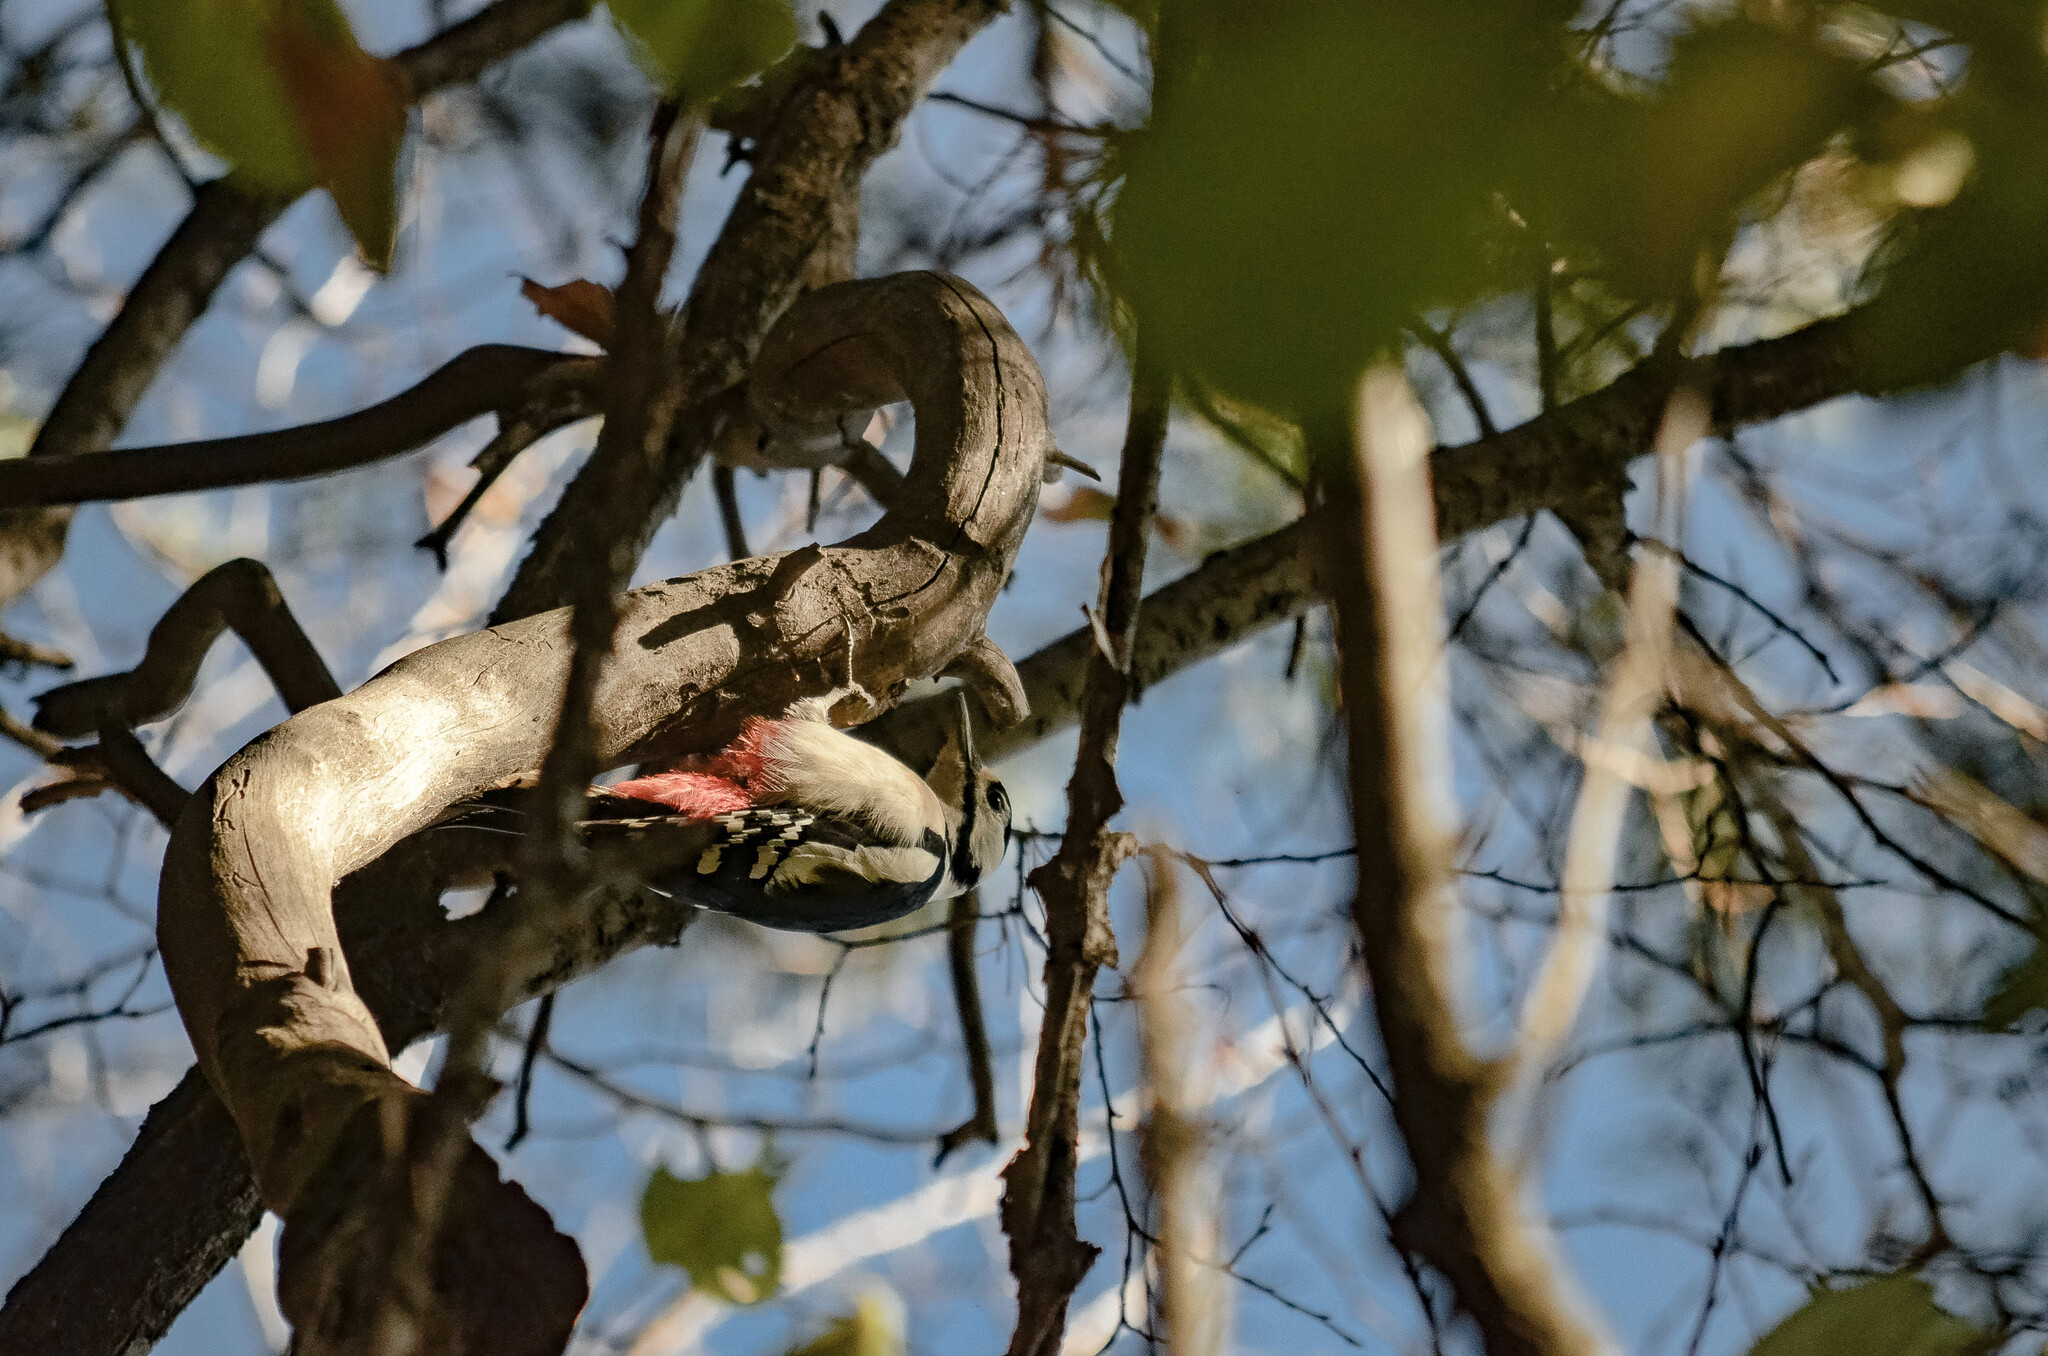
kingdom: Animalia
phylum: Chordata
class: Aves
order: Piciformes
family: Picidae
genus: Dendrocopos
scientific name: Dendrocopos major
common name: Great spotted woodpecker
